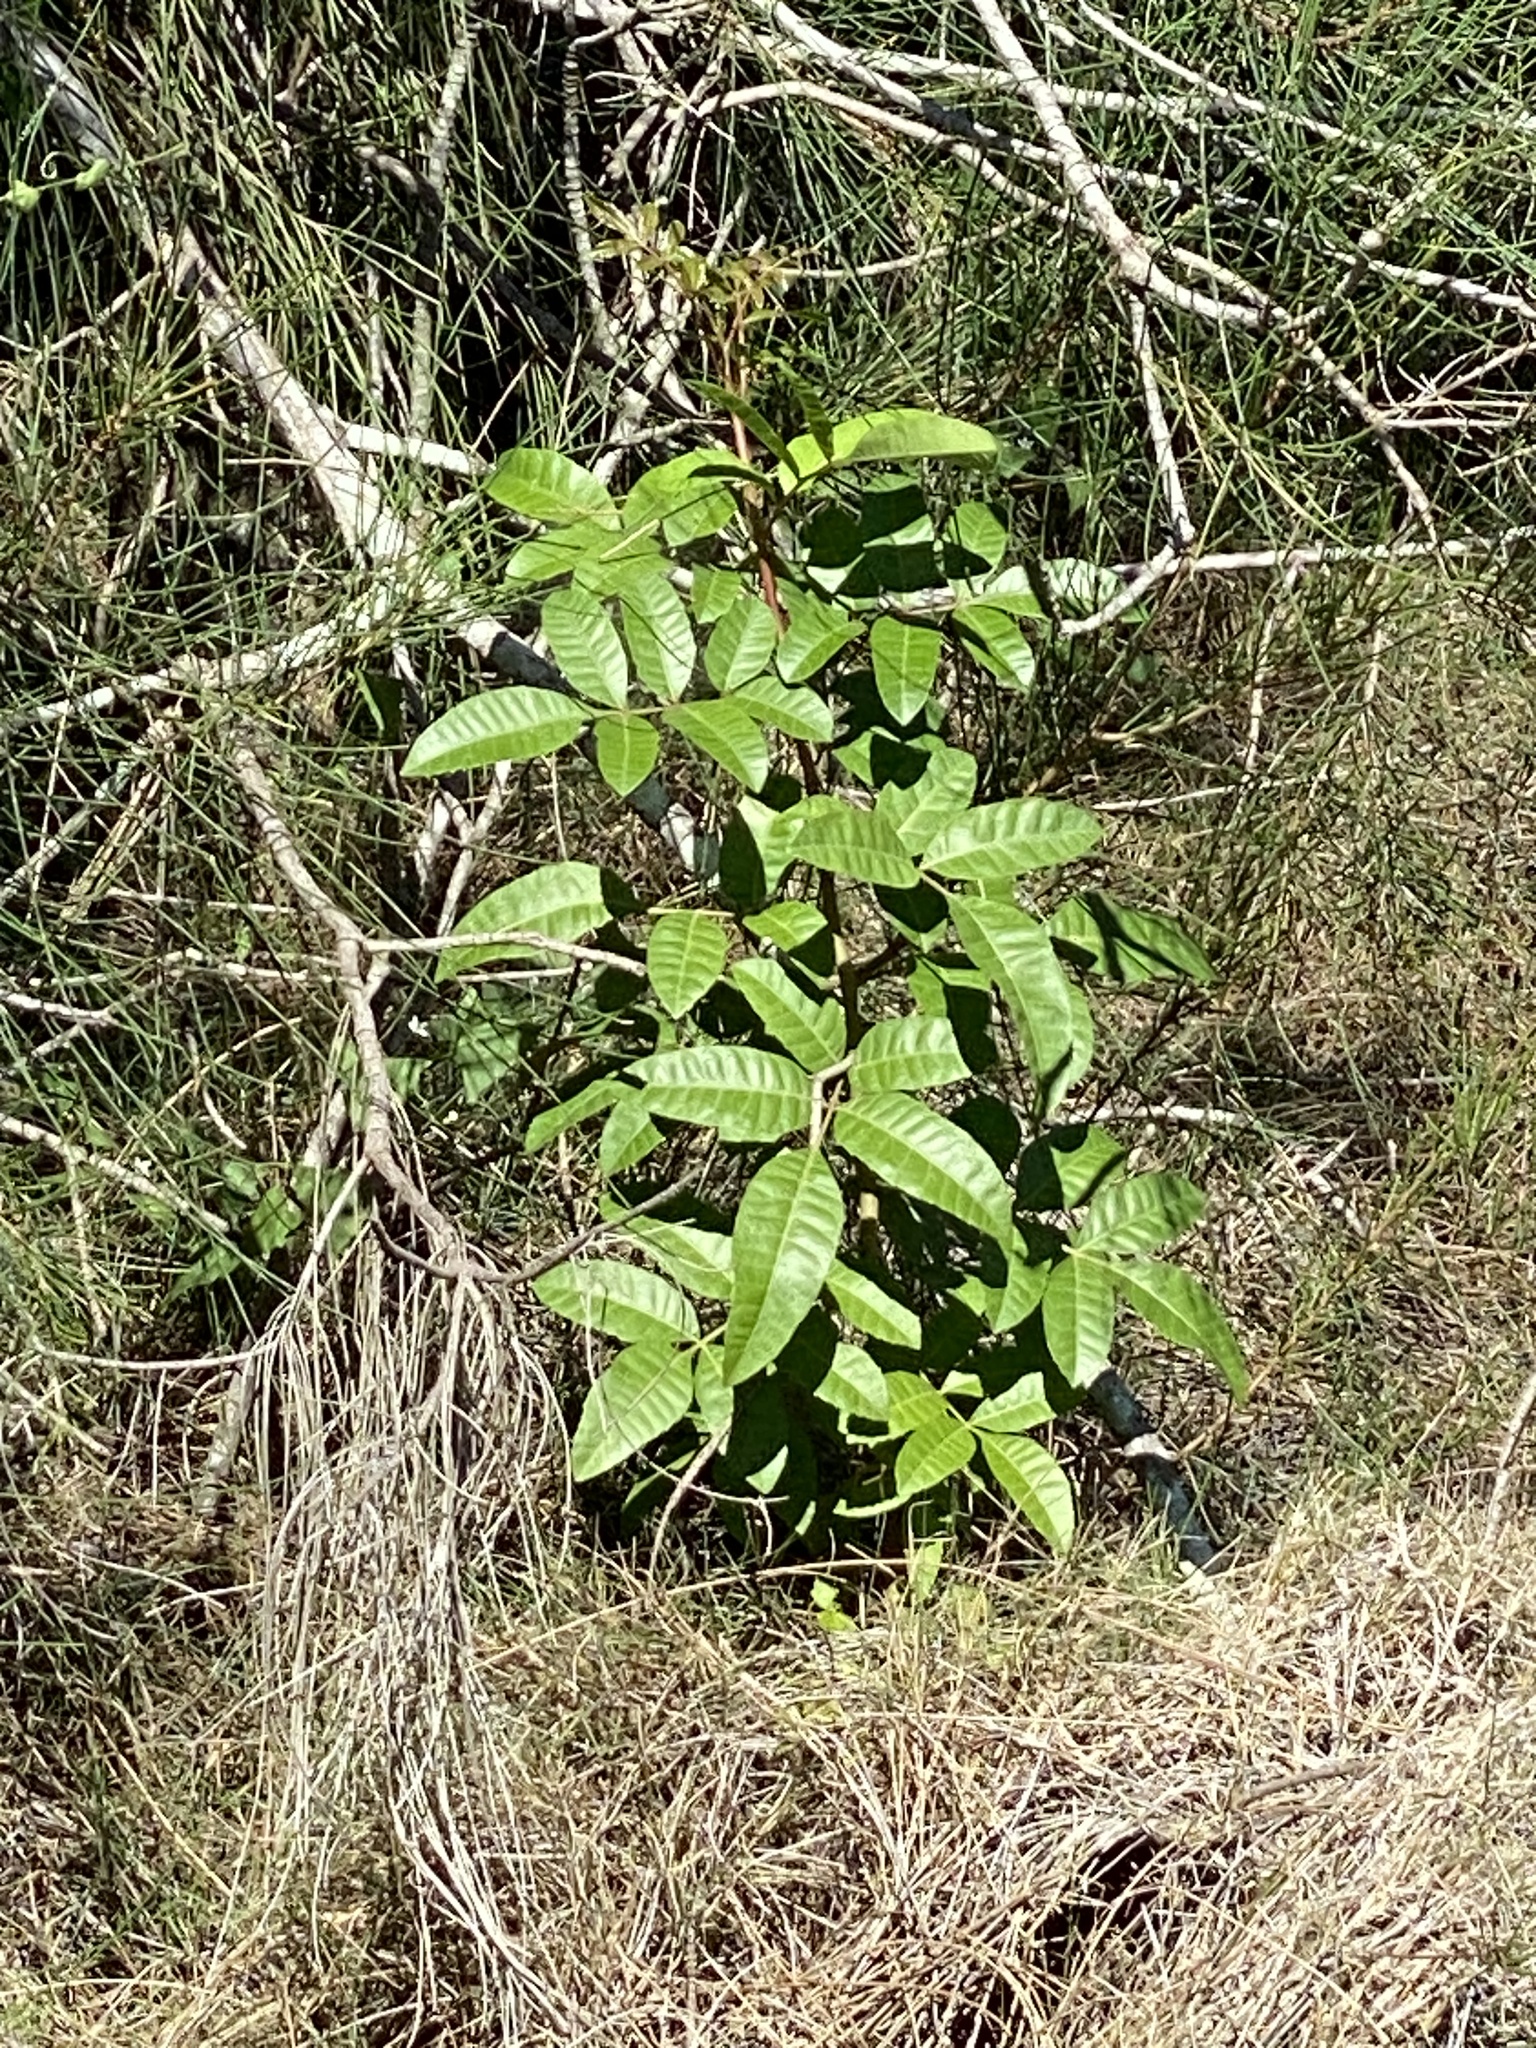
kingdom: Plantae
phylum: Tracheophyta
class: Magnoliopsida
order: Sapindales
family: Anacardiaceae
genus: Schinus
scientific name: Schinus terebinthifolia
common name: Brazilian peppertree
